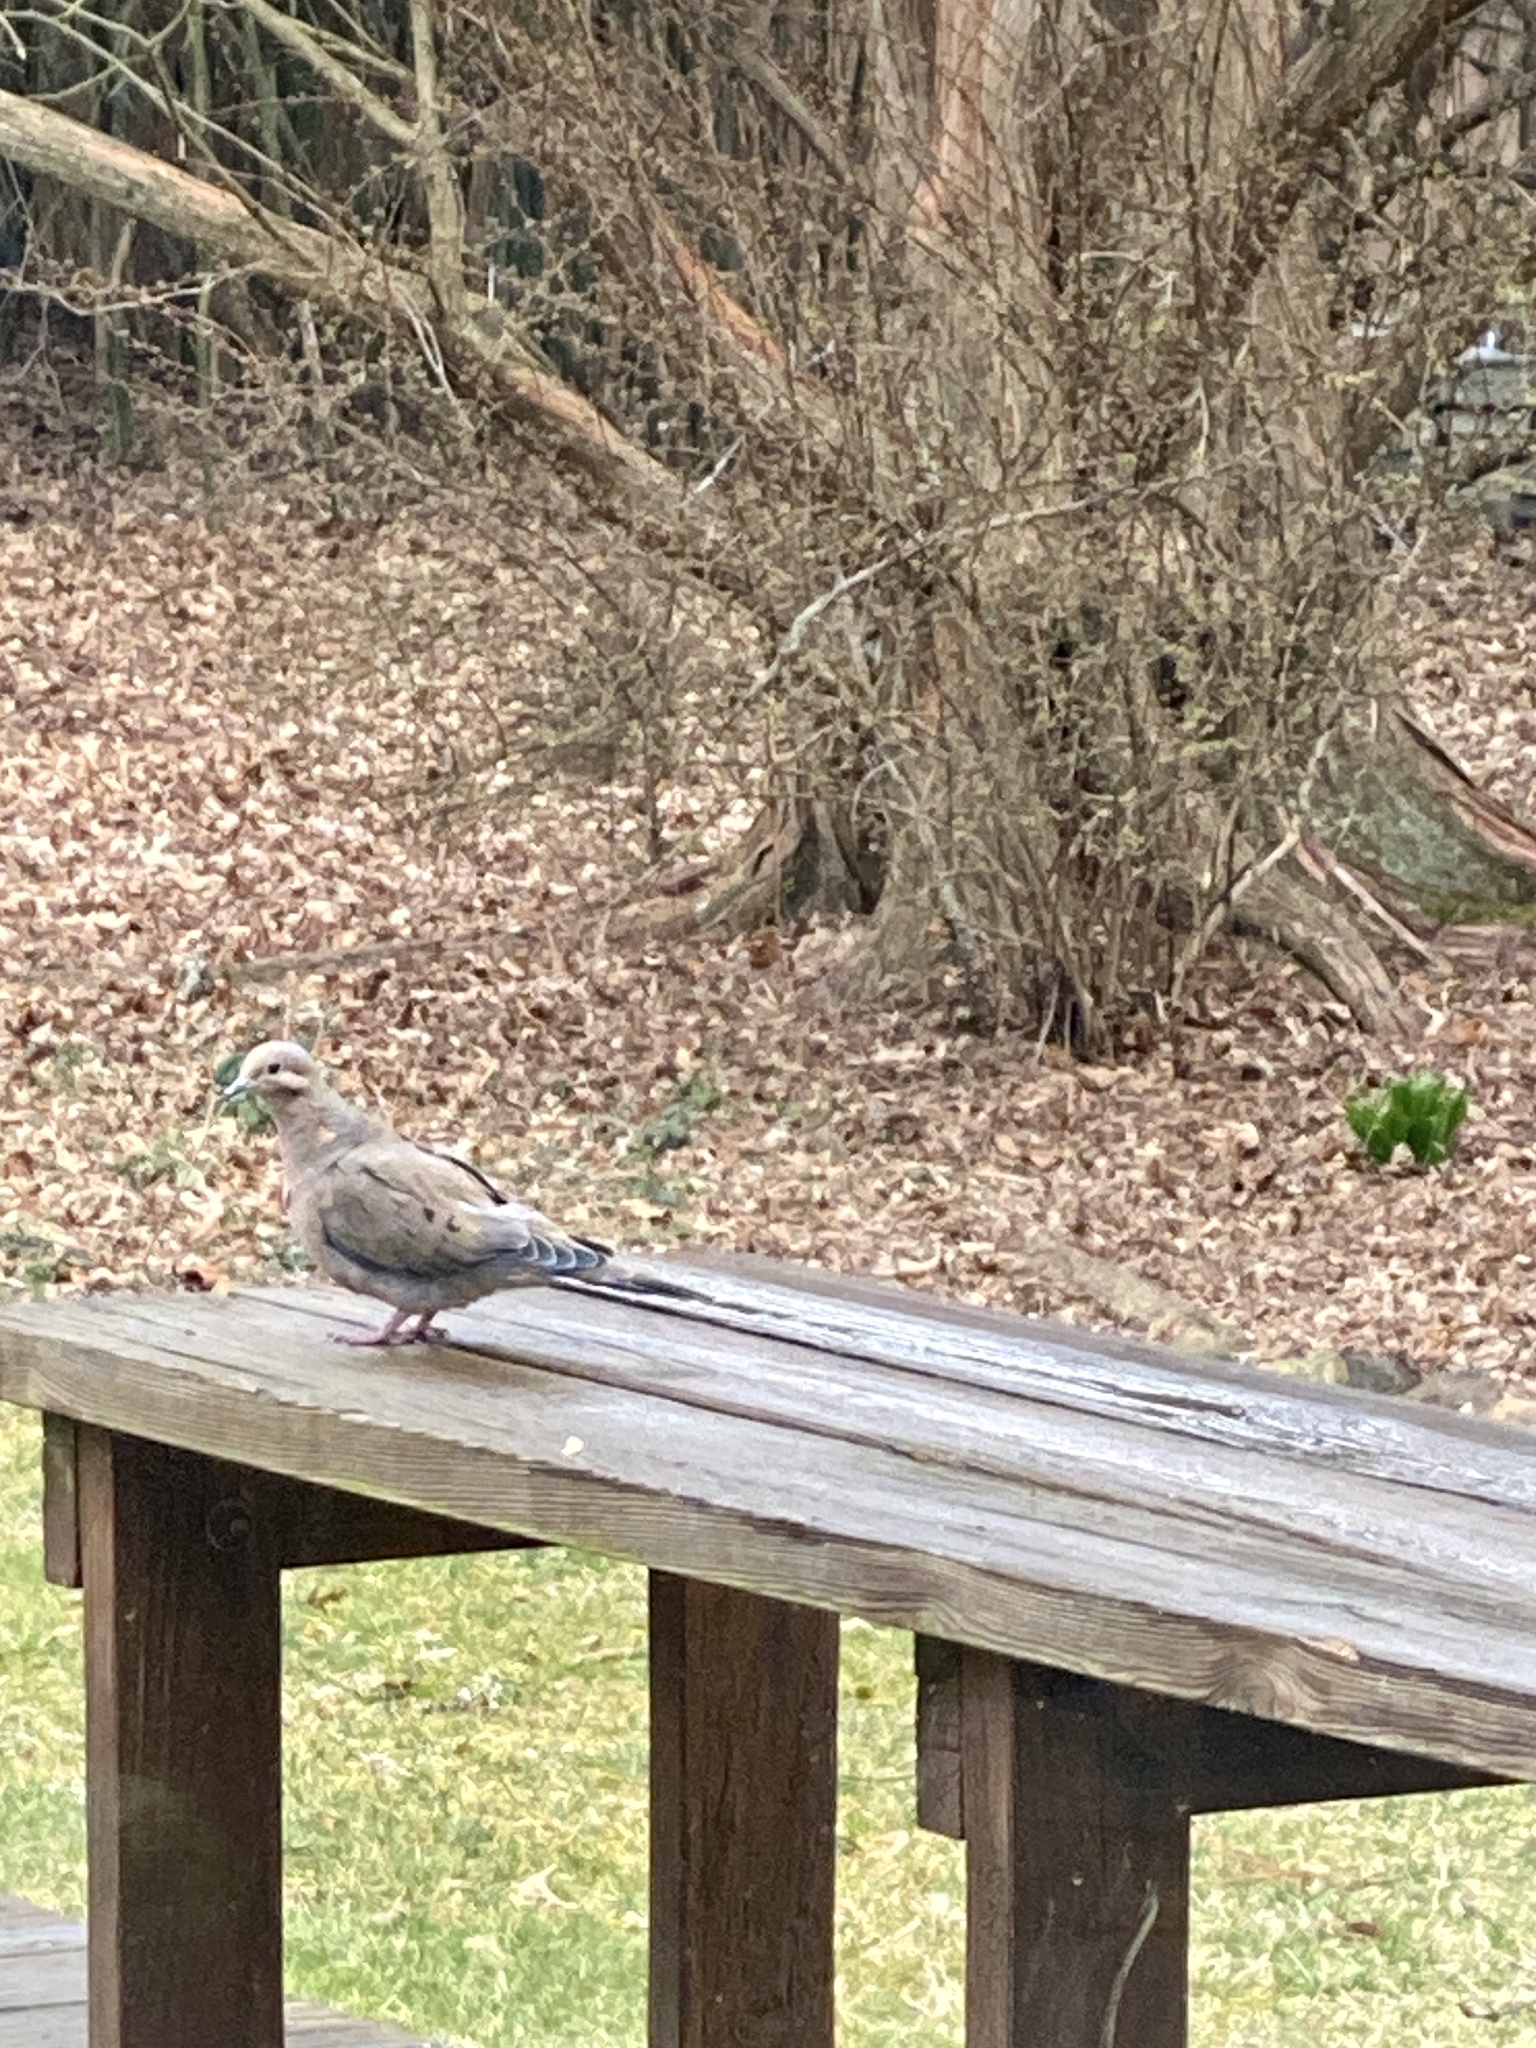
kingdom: Animalia
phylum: Chordata
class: Aves
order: Columbiformes
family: Columbidae
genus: Zenaida
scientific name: Zenaida macroura
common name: Mourning dove
